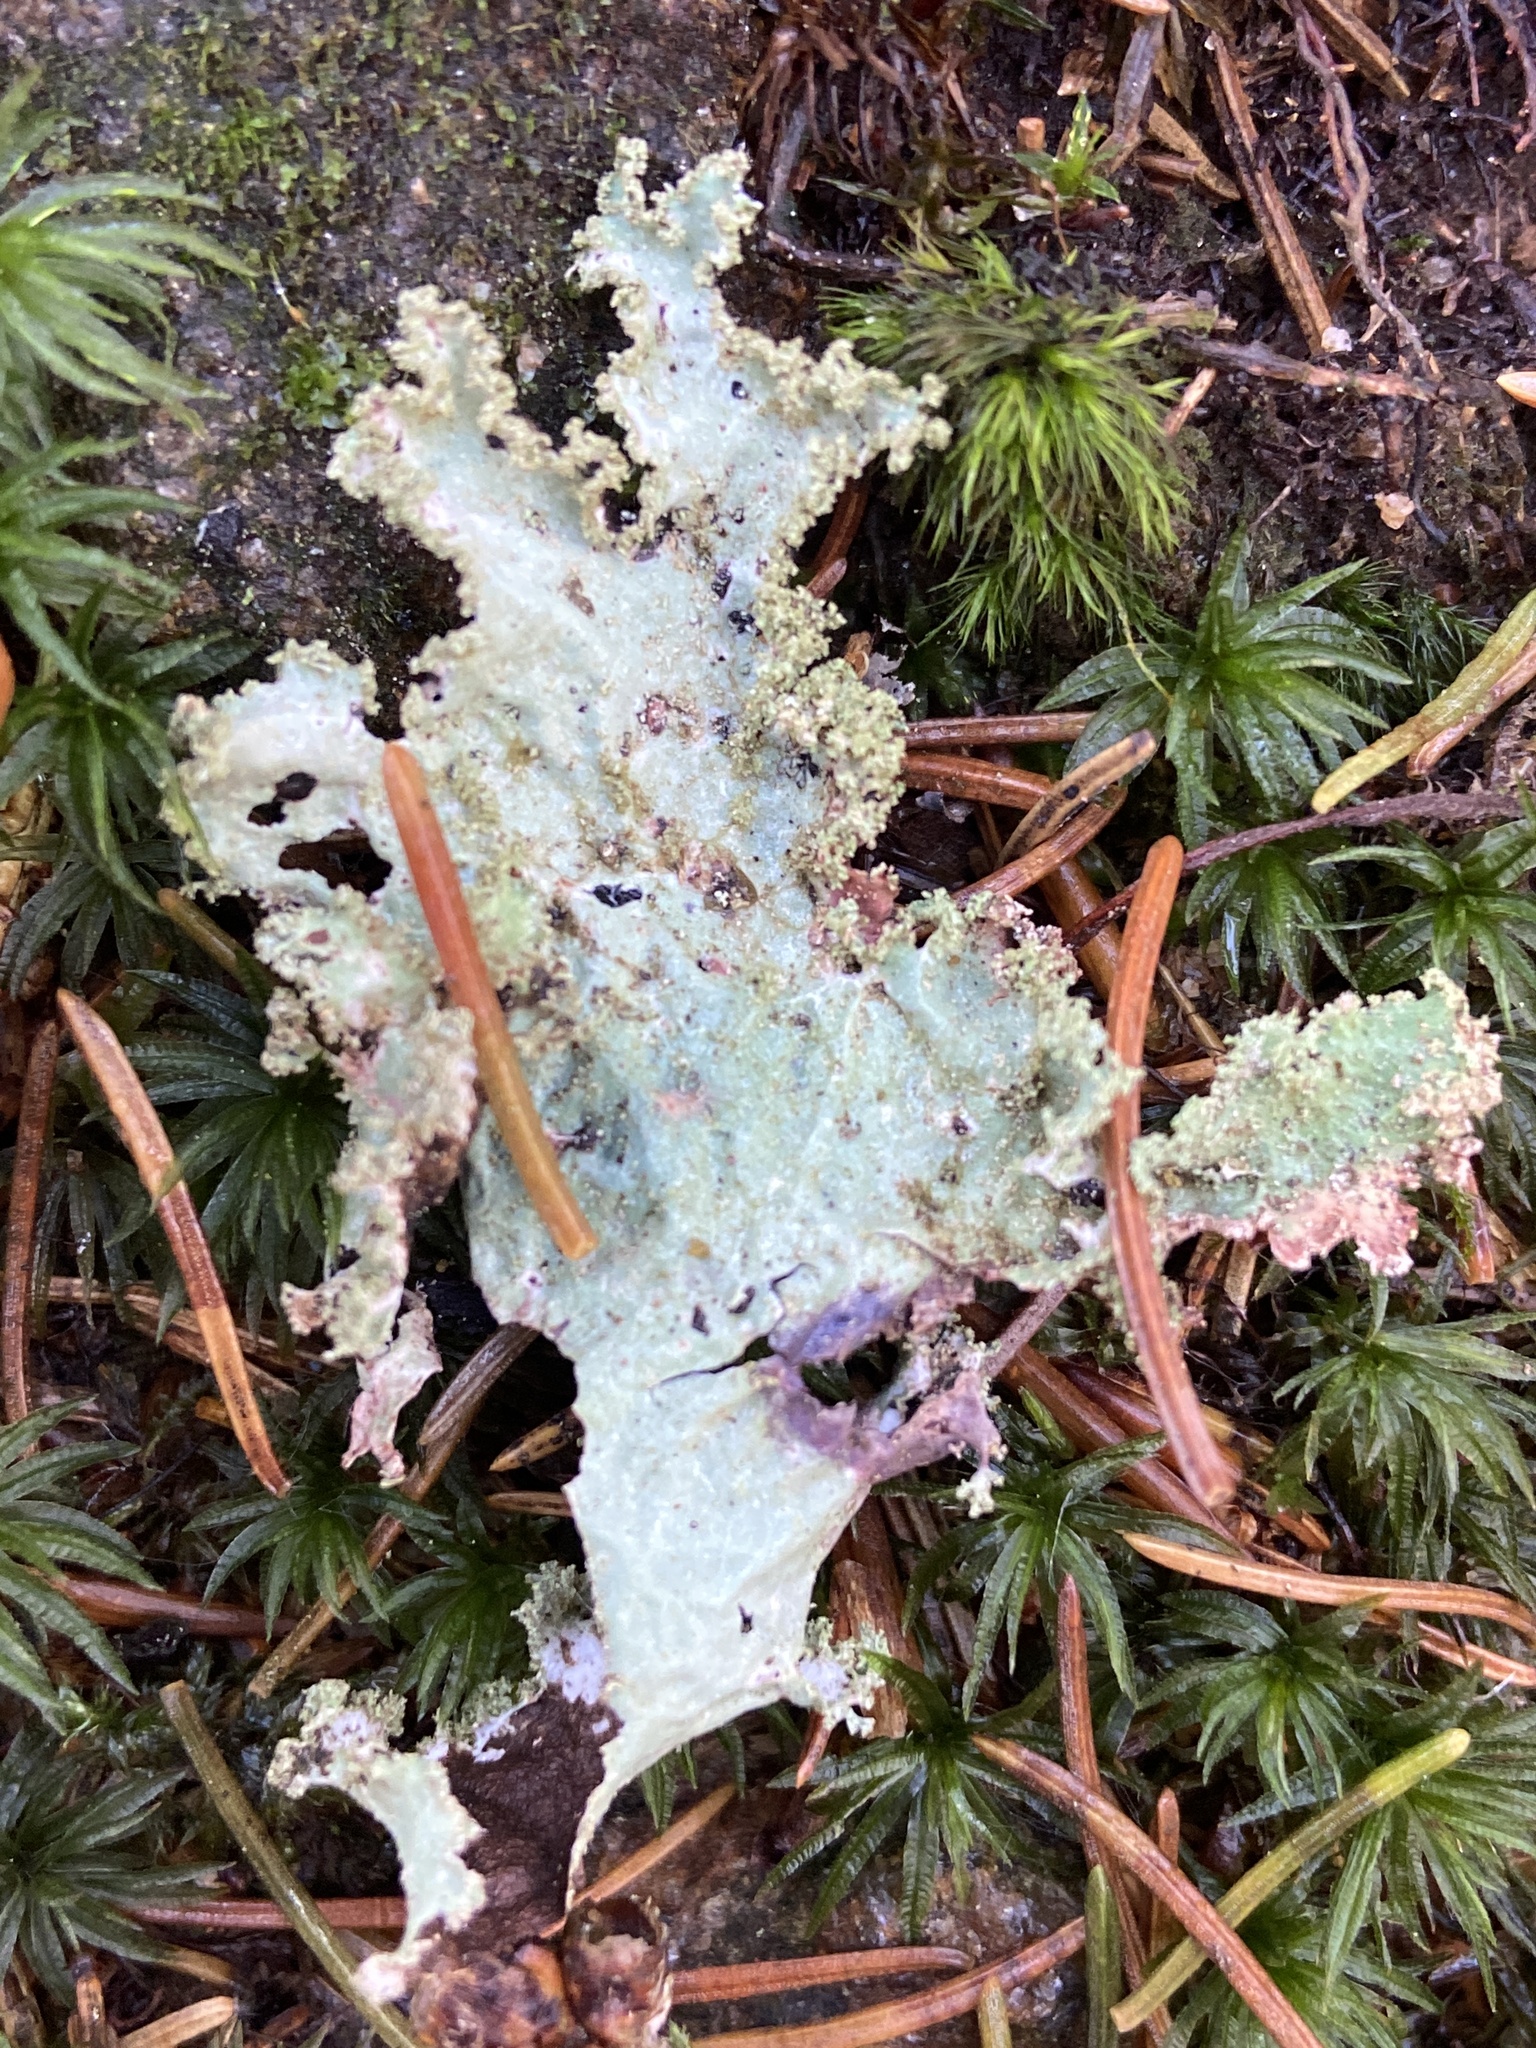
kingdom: Fungi
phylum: Ascomycota
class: Lecanoromycetes
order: Lecanorales
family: Parmeliaceae
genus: Platismatia
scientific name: Platismatia glauca
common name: Varied rag lichen
